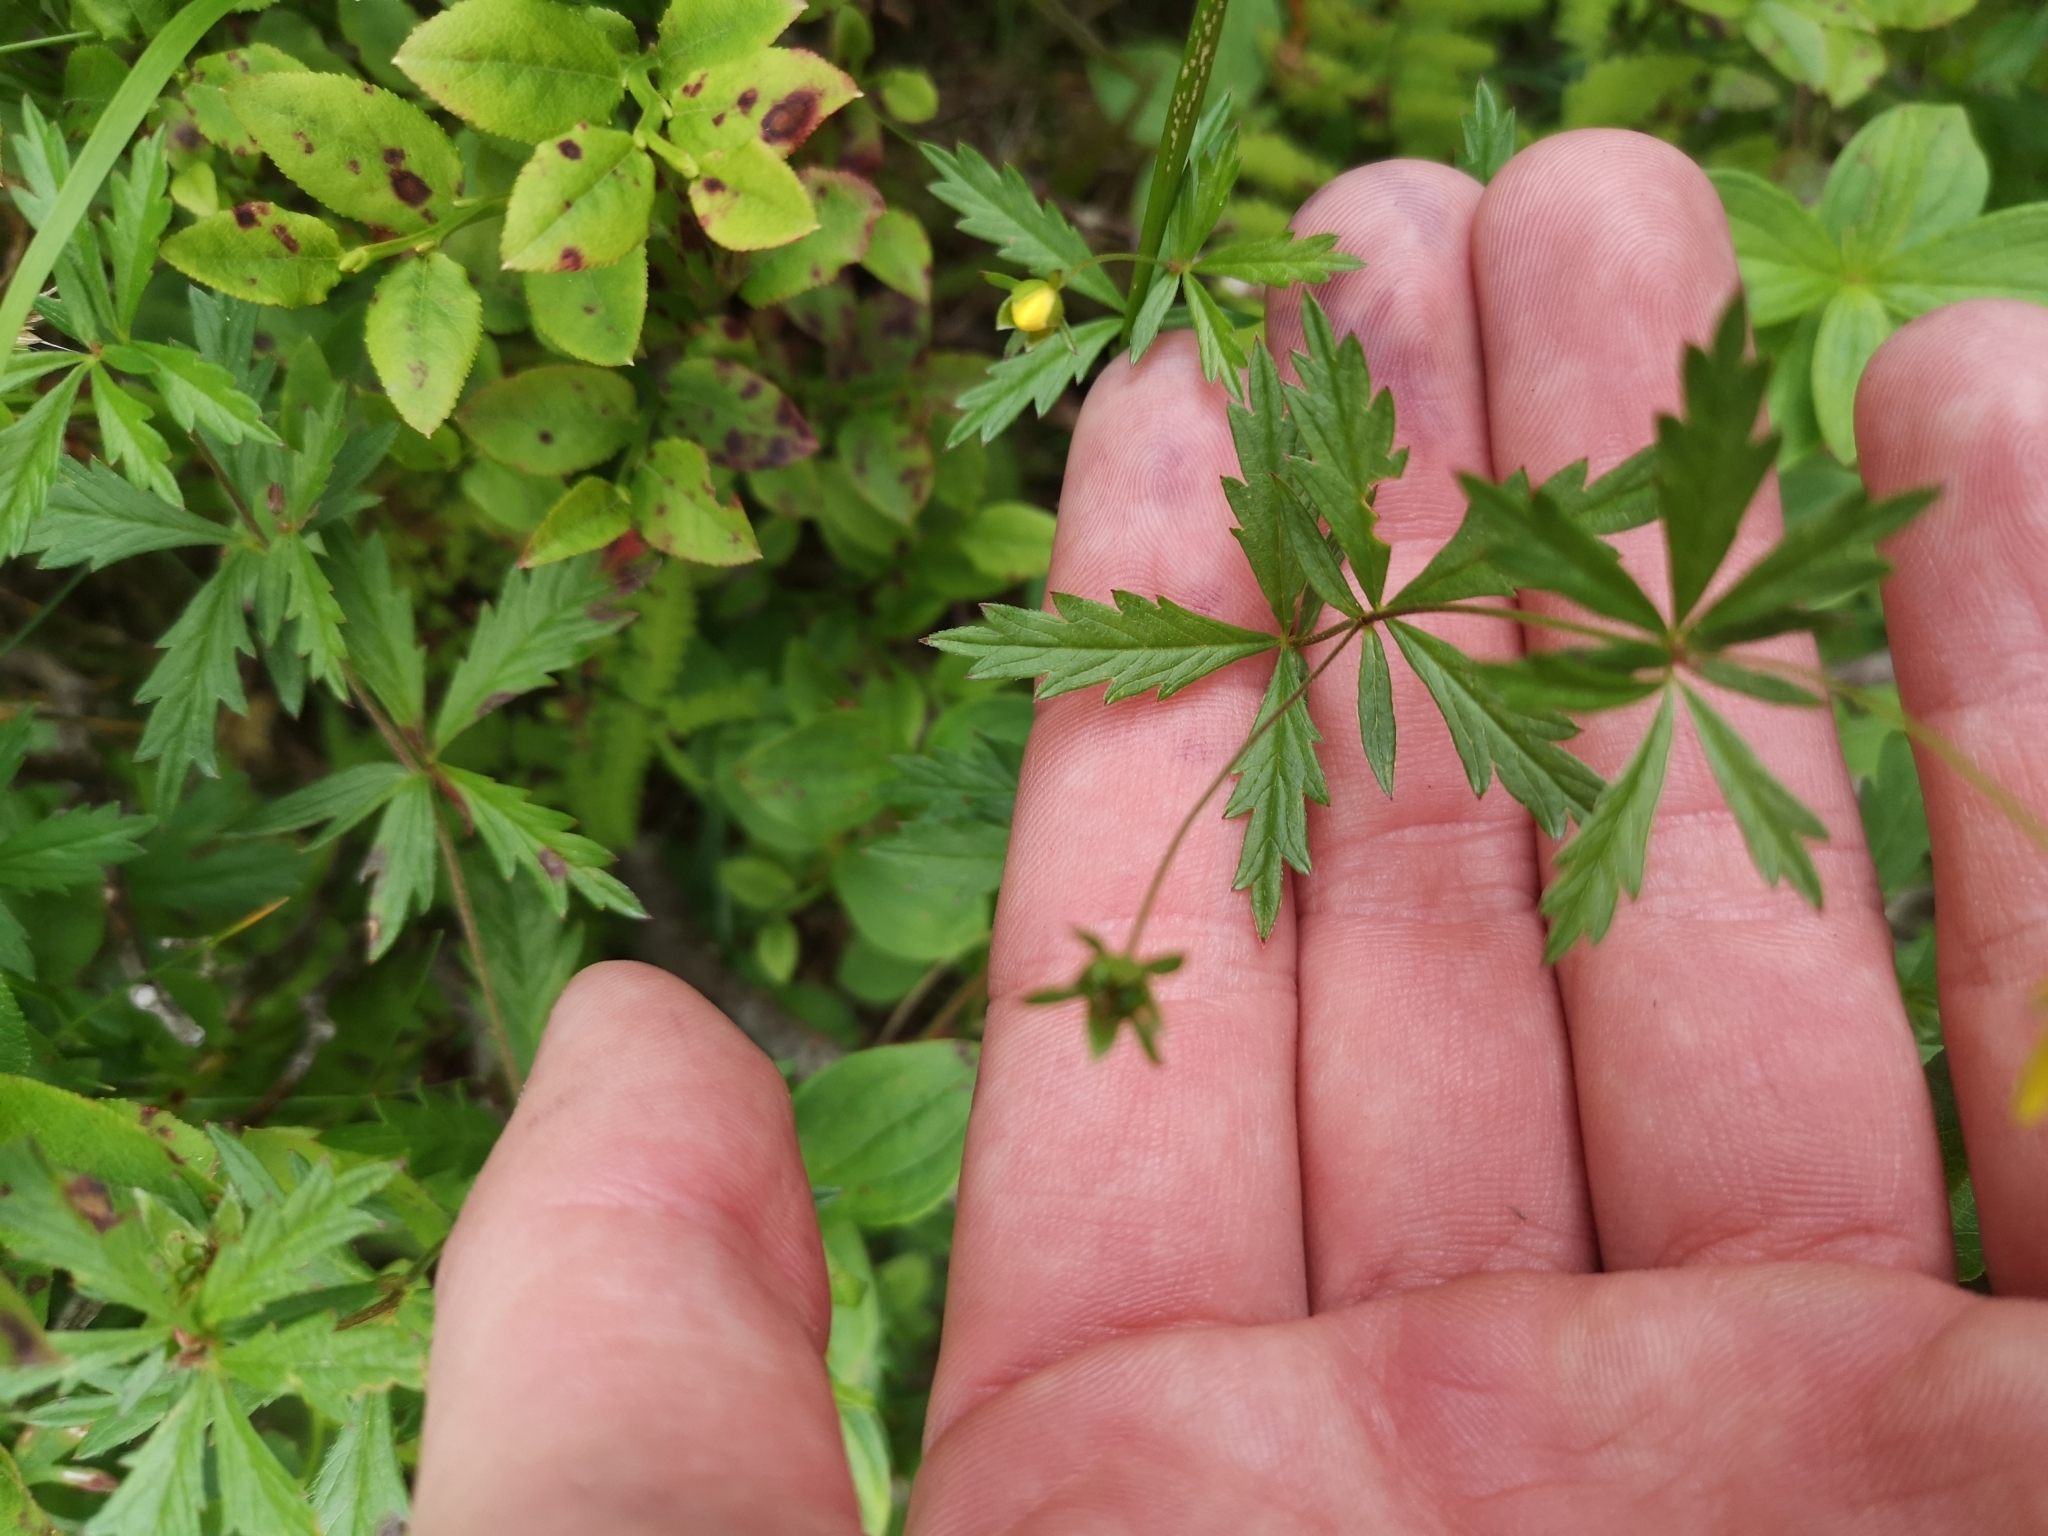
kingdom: Plantae
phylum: Tracheophyta
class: Magnoliopsida
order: Rosales
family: Rosaceae
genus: Potentilla
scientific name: Potentilla erecta
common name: Tormentil
